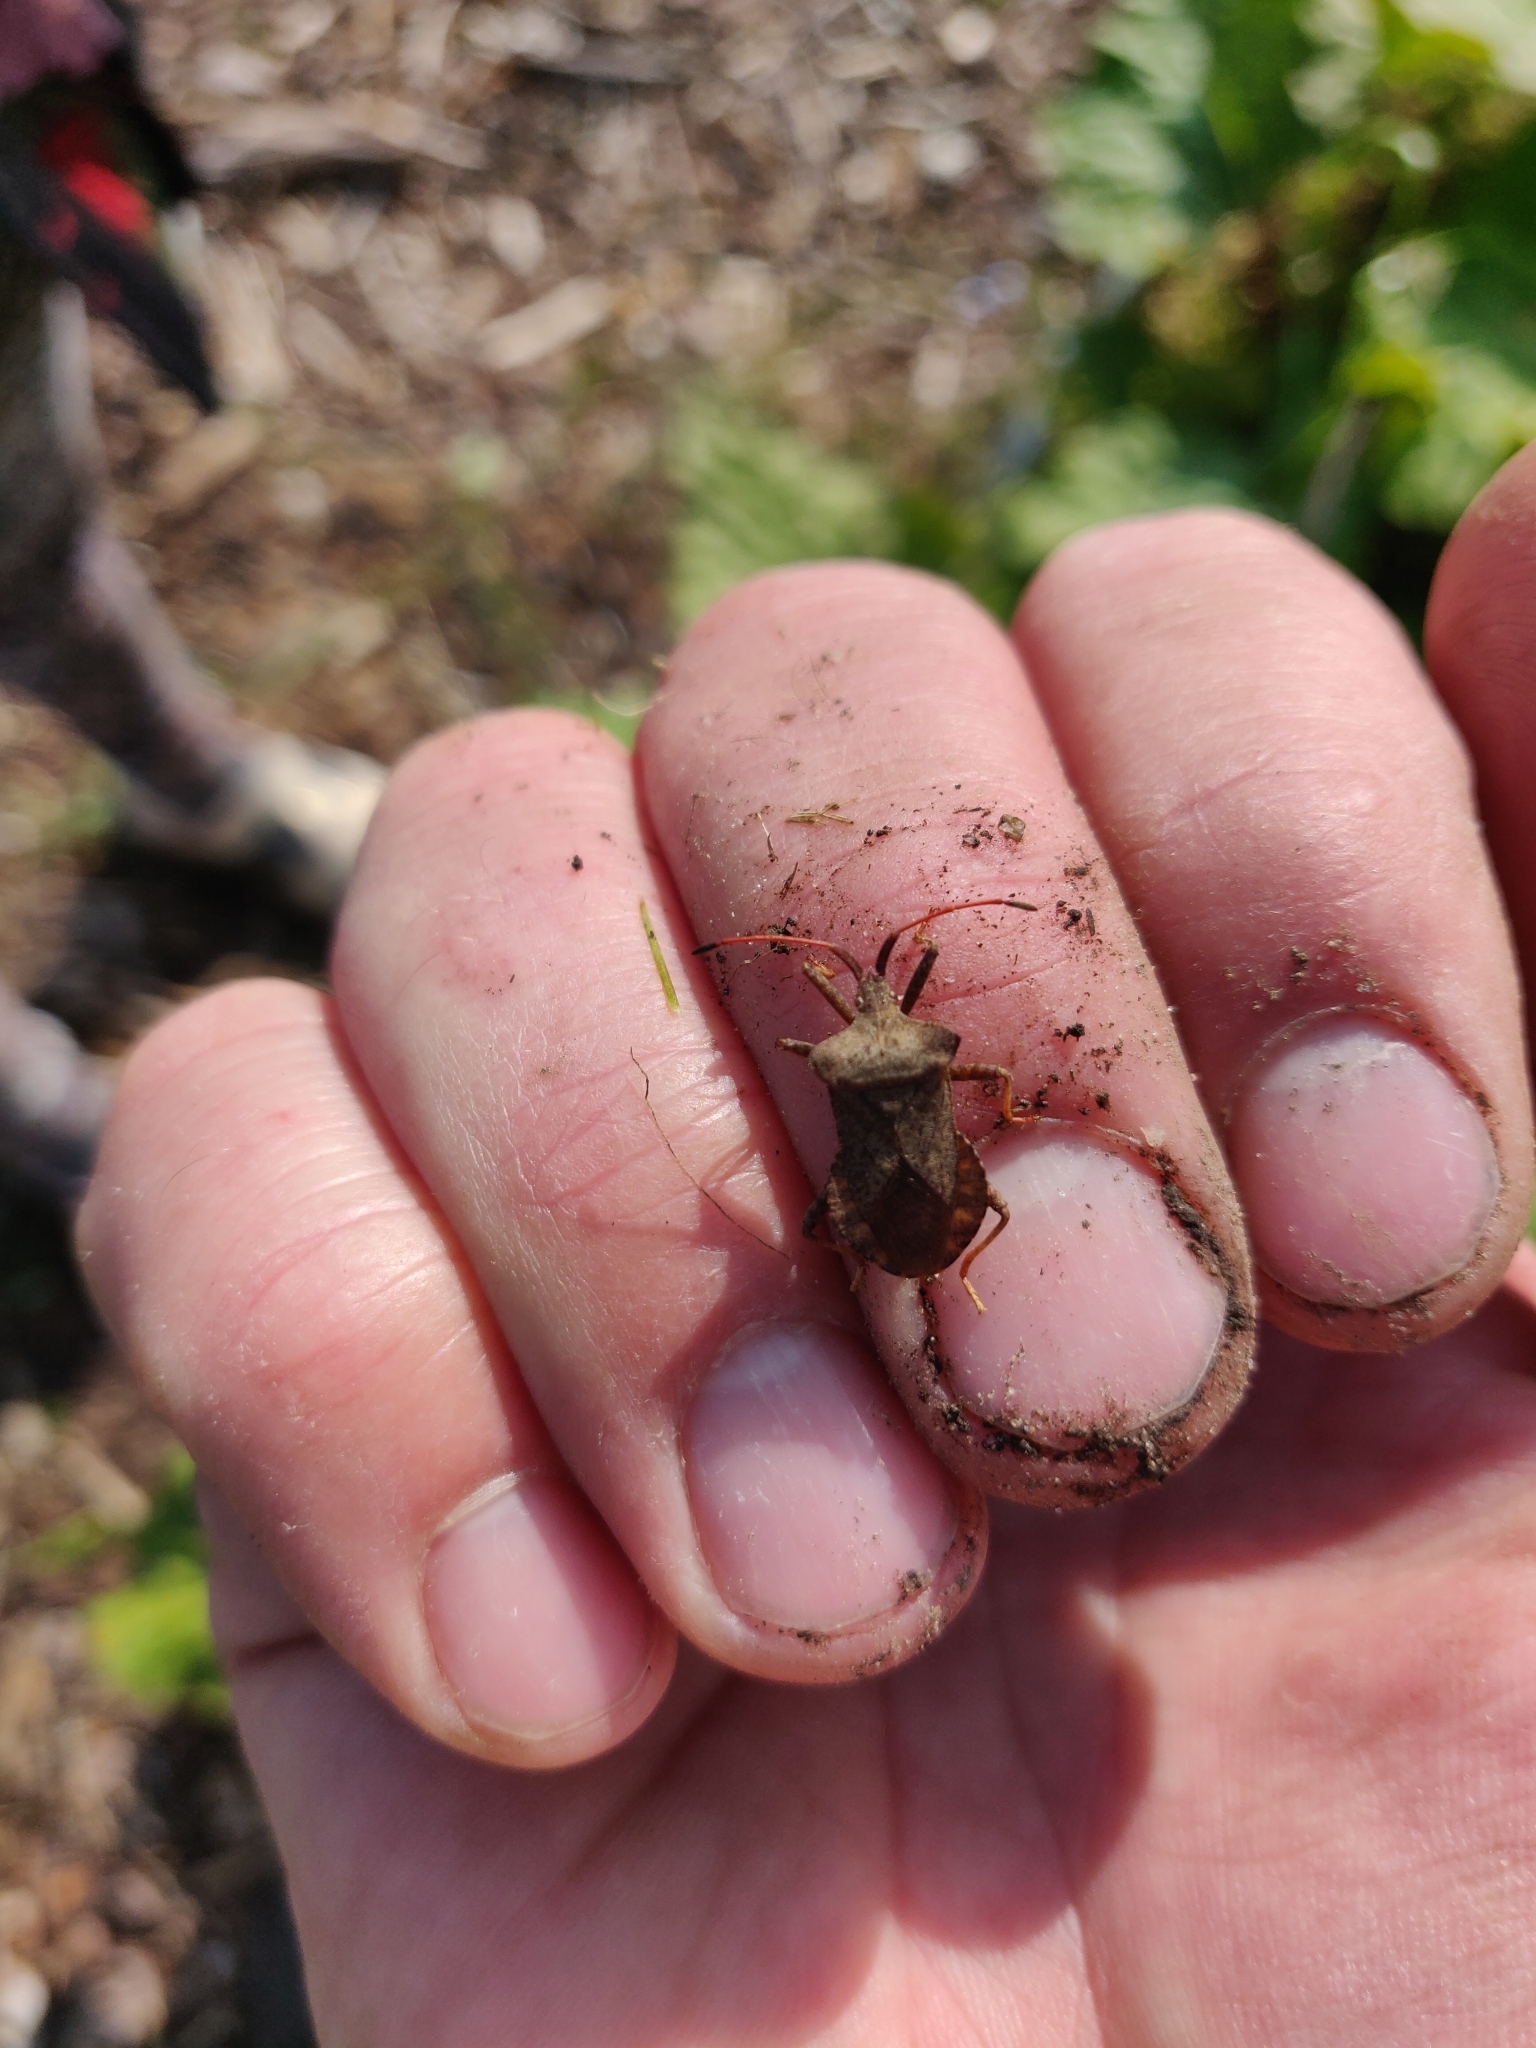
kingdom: Animalia
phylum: Arthropoda
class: Insecta
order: Hemiptera
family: Coreidae
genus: Coreus
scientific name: Coreus marginatus
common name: Dock bug
